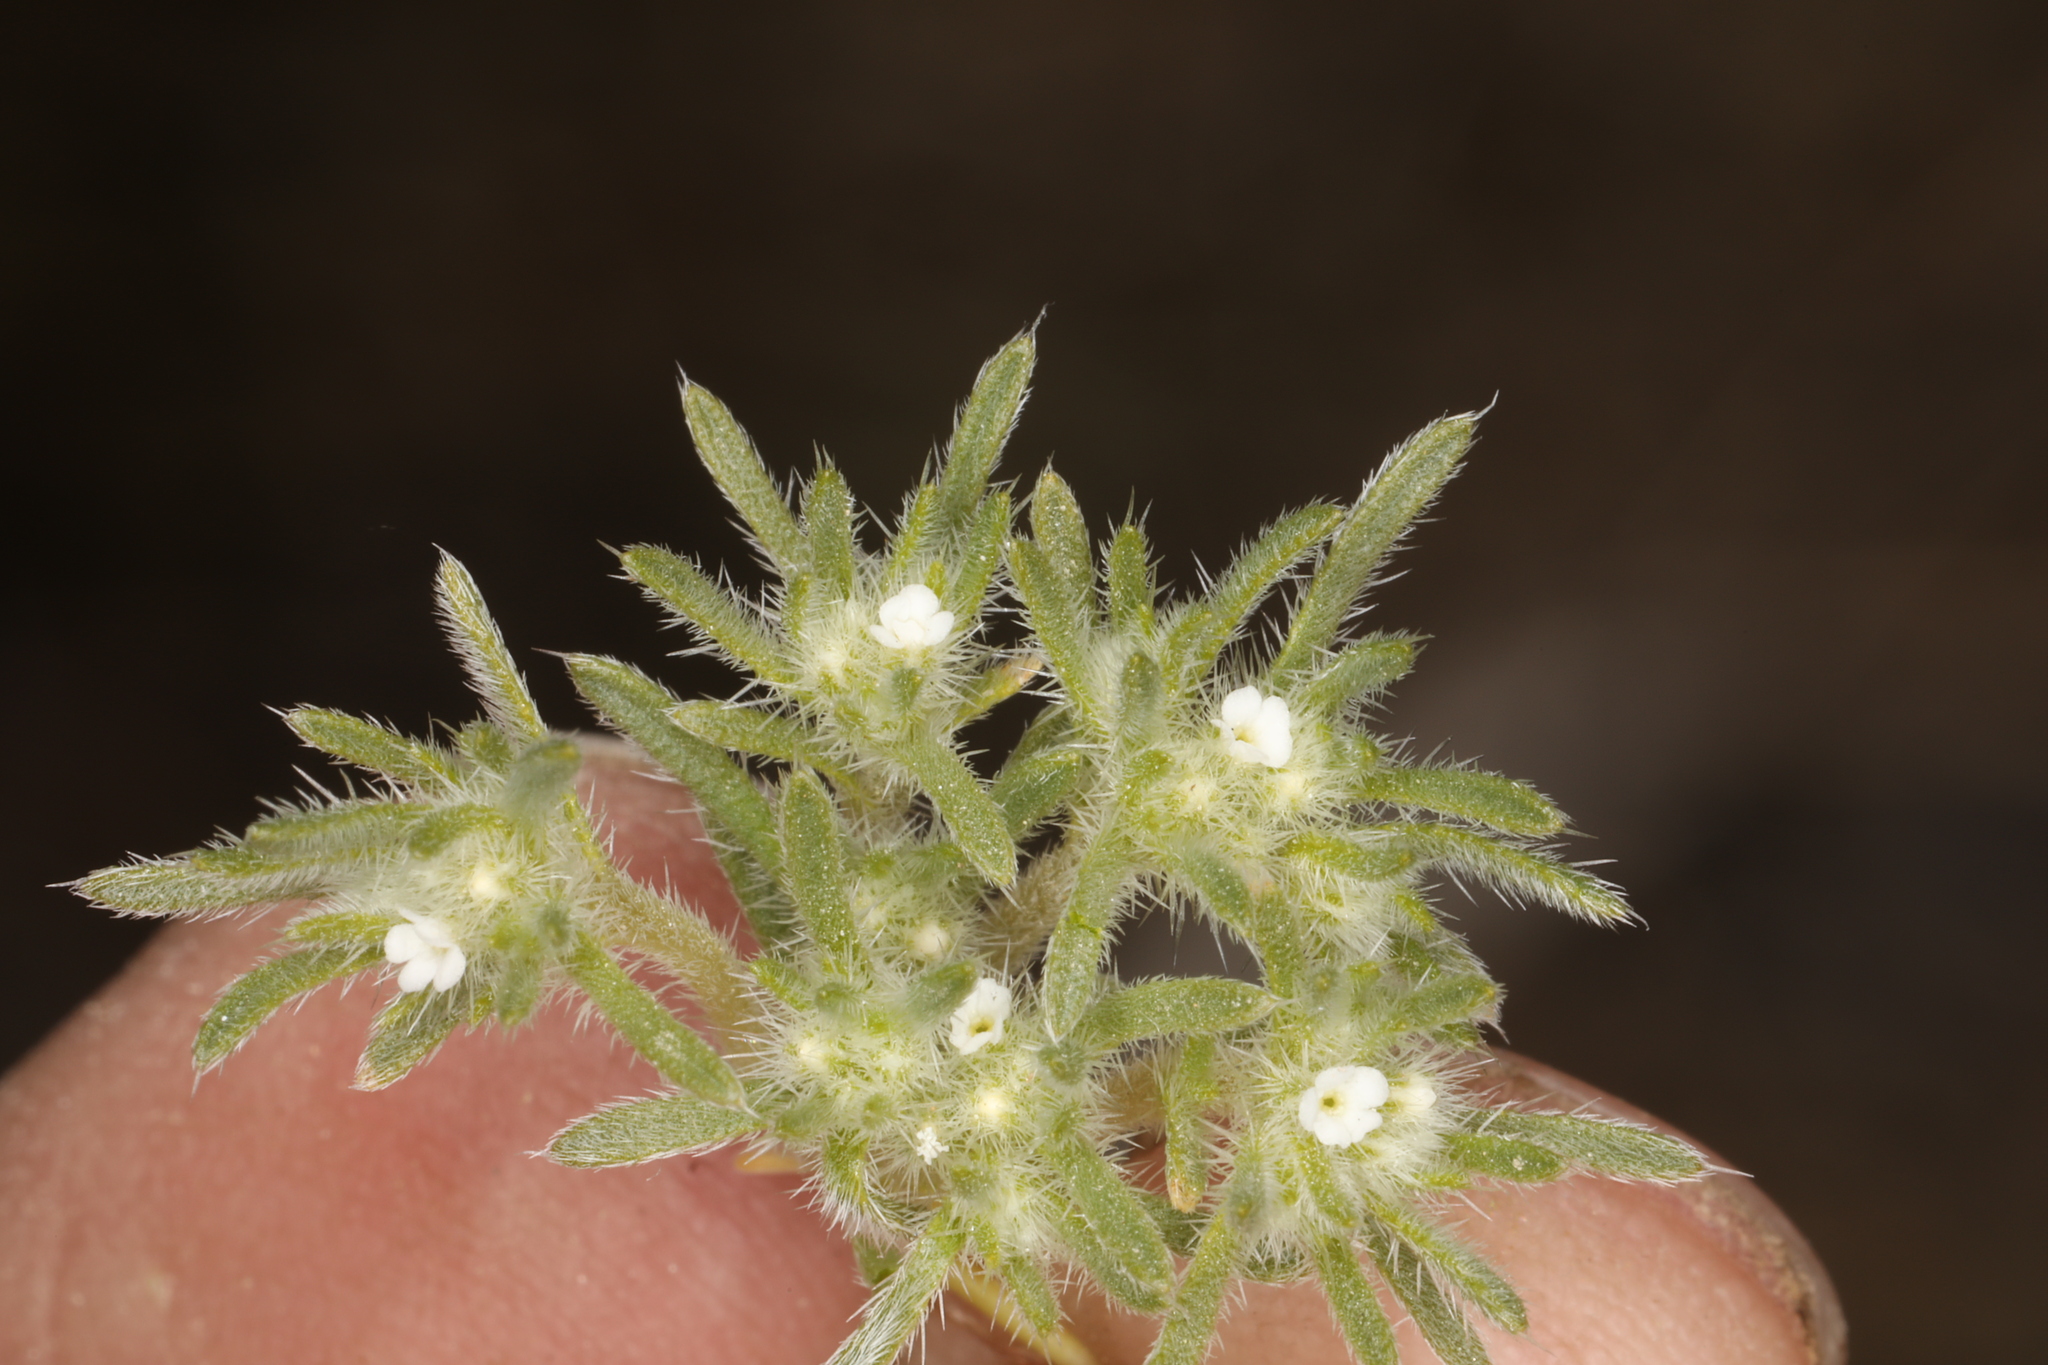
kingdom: Plantae
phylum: Tracheophyta
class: Magnoliopsida
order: Boraginales
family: Boraginaceae
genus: Greeneocharis
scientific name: Greeneocharis circumscissa
